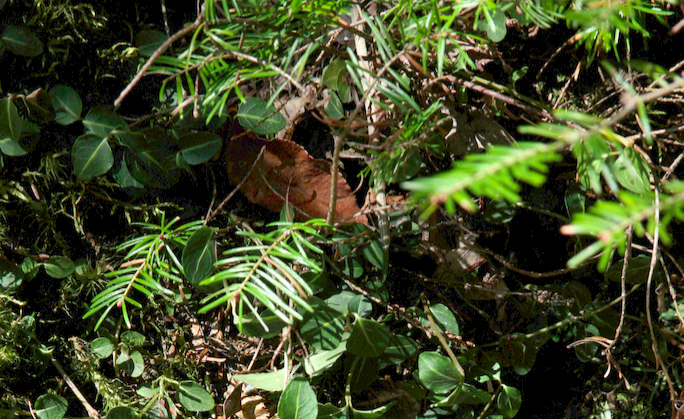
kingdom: Plantae
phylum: Tracheophyta
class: Pinopsida
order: Pinales
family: Pinaceae
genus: Abies
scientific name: Abies balsamea
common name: Balsam fir
